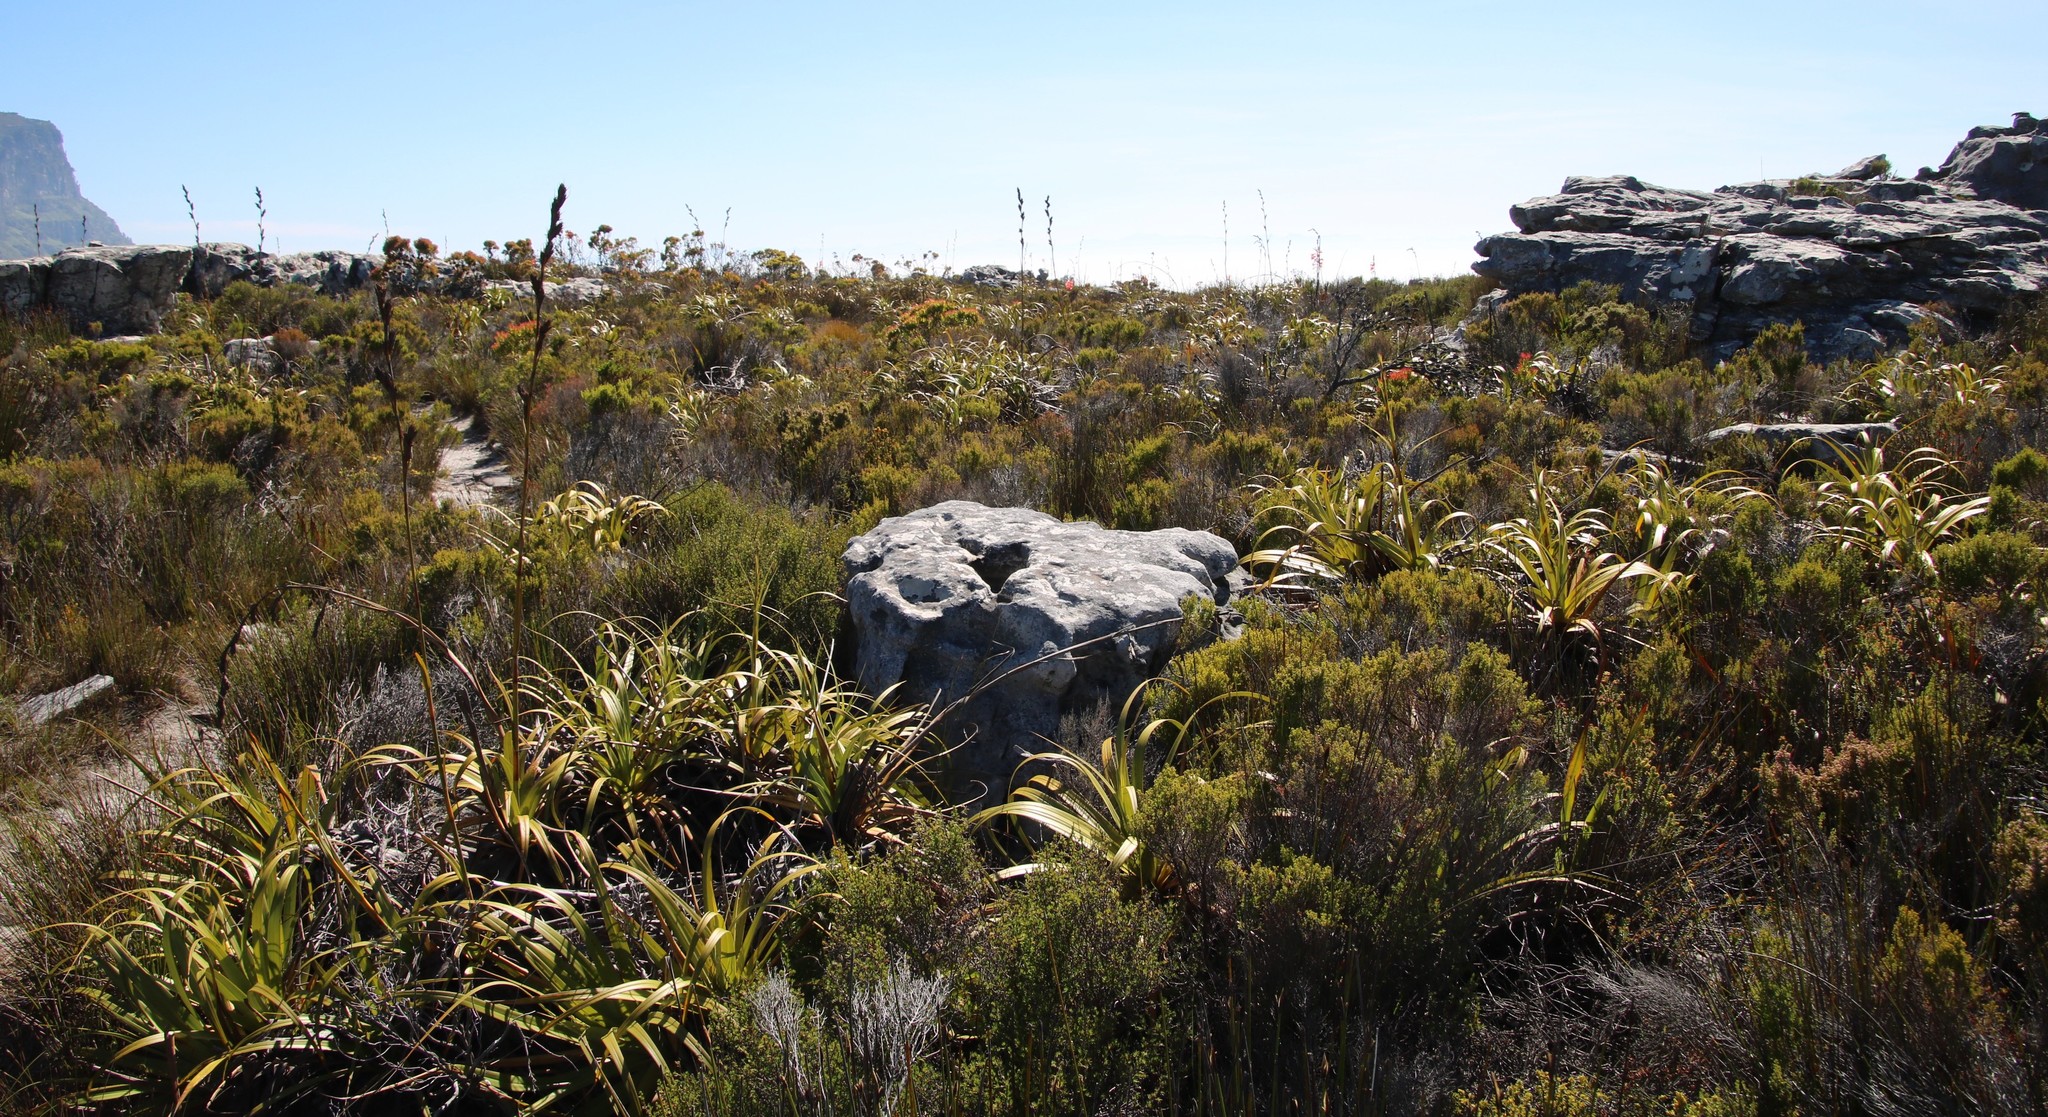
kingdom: Plantae
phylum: Tracheophyta
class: Liliopsida
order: Poales
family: Cyperaceae
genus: Tetraria
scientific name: Tetraria thermalis
